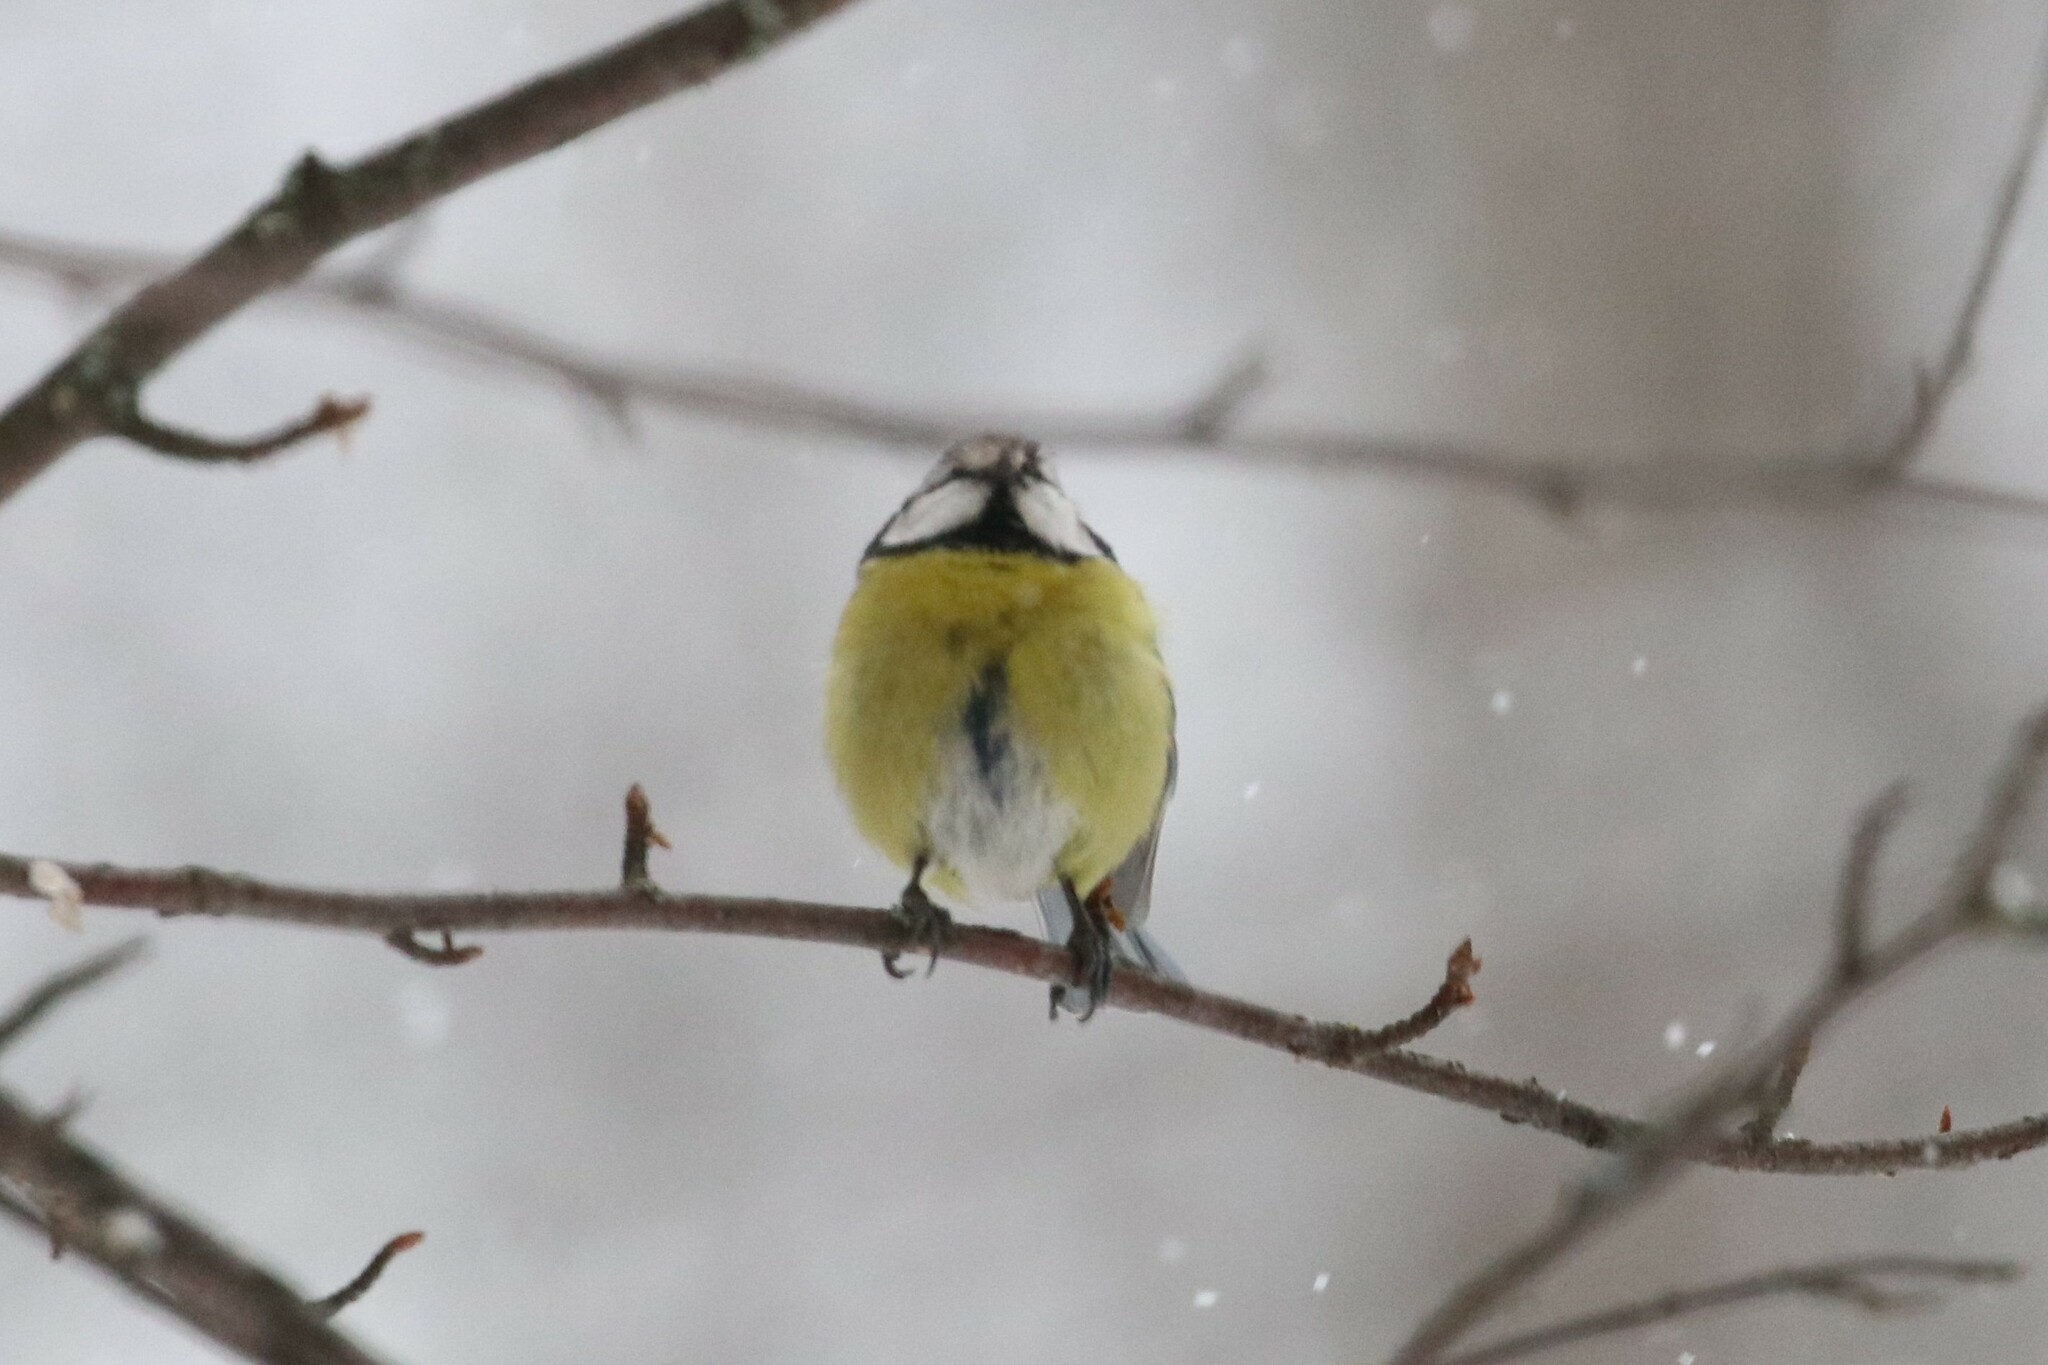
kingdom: Animalia
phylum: Chordata
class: Aves
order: Passeriformes
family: Paridae
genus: Cyanistes
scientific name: Cyanistes caeruleus
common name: Eurasian blue tit
